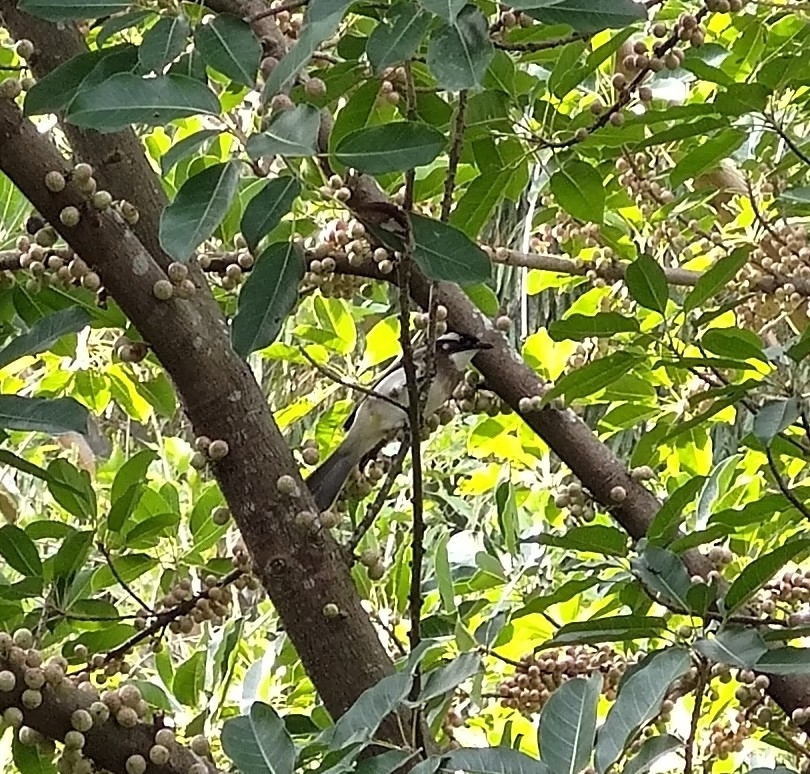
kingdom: Animalia
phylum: Chordata
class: Aves
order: Passeriformes
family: Pycnonotidae
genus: Pycnonotus
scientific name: Pycnonotus sinensis
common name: Light-vented bulbul
